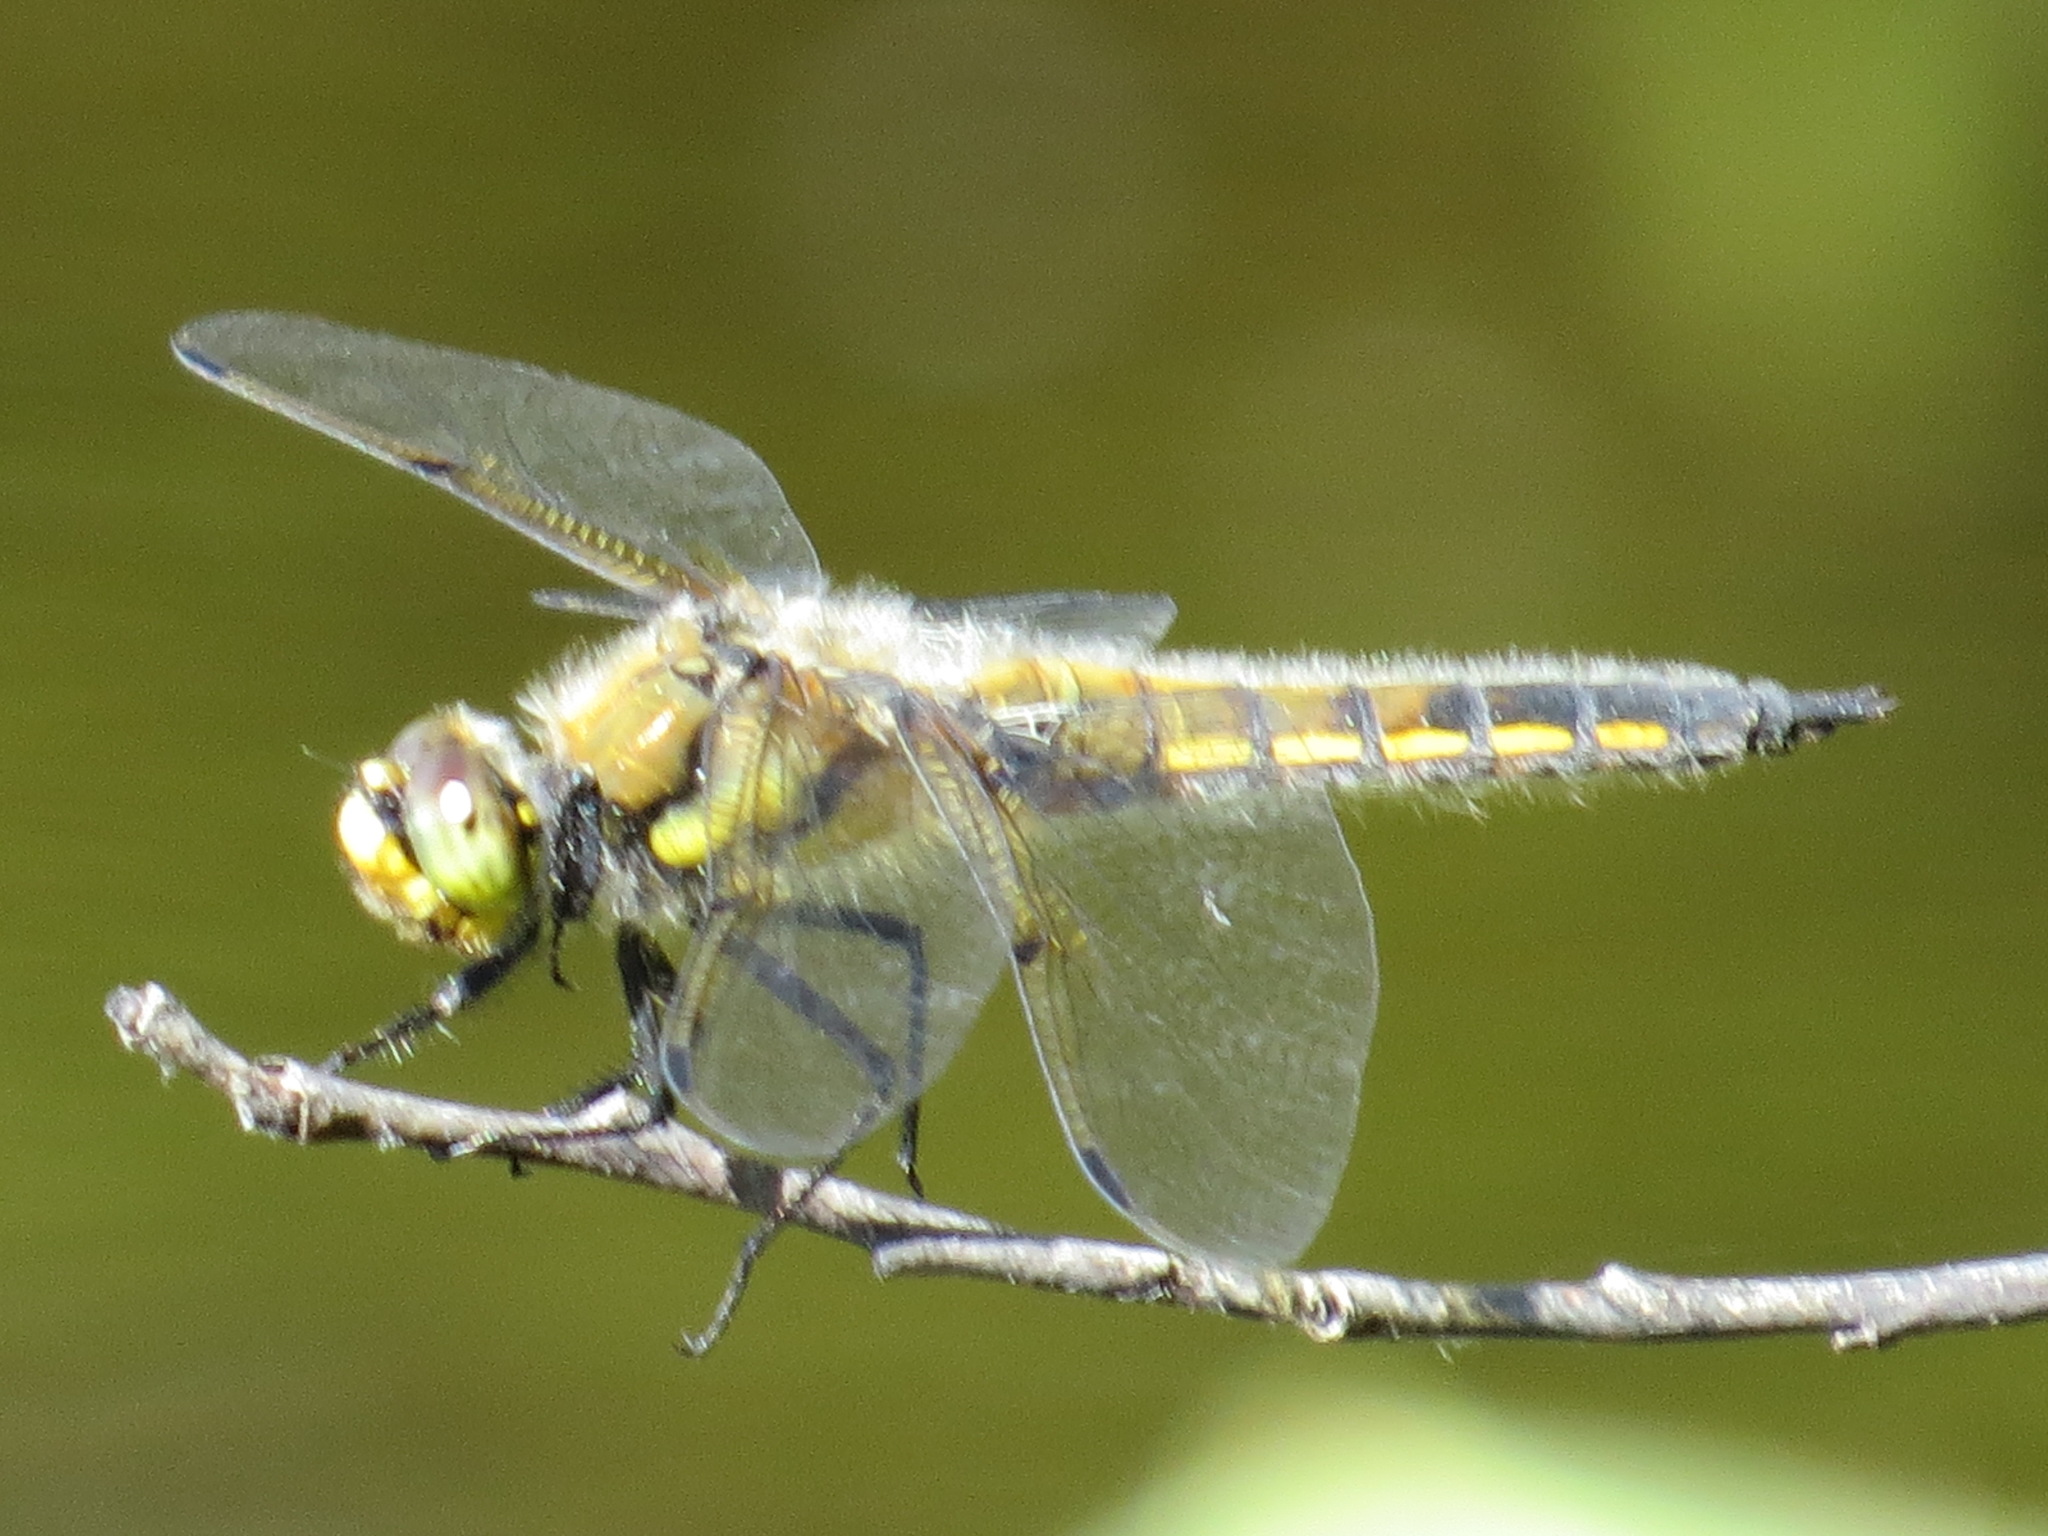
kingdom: Animalia
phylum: Arthropoda
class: Insecta
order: Odonata
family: Libellulidae
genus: Libellula
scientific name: Libellula quadrimaculata
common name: Four-spotted chaser
